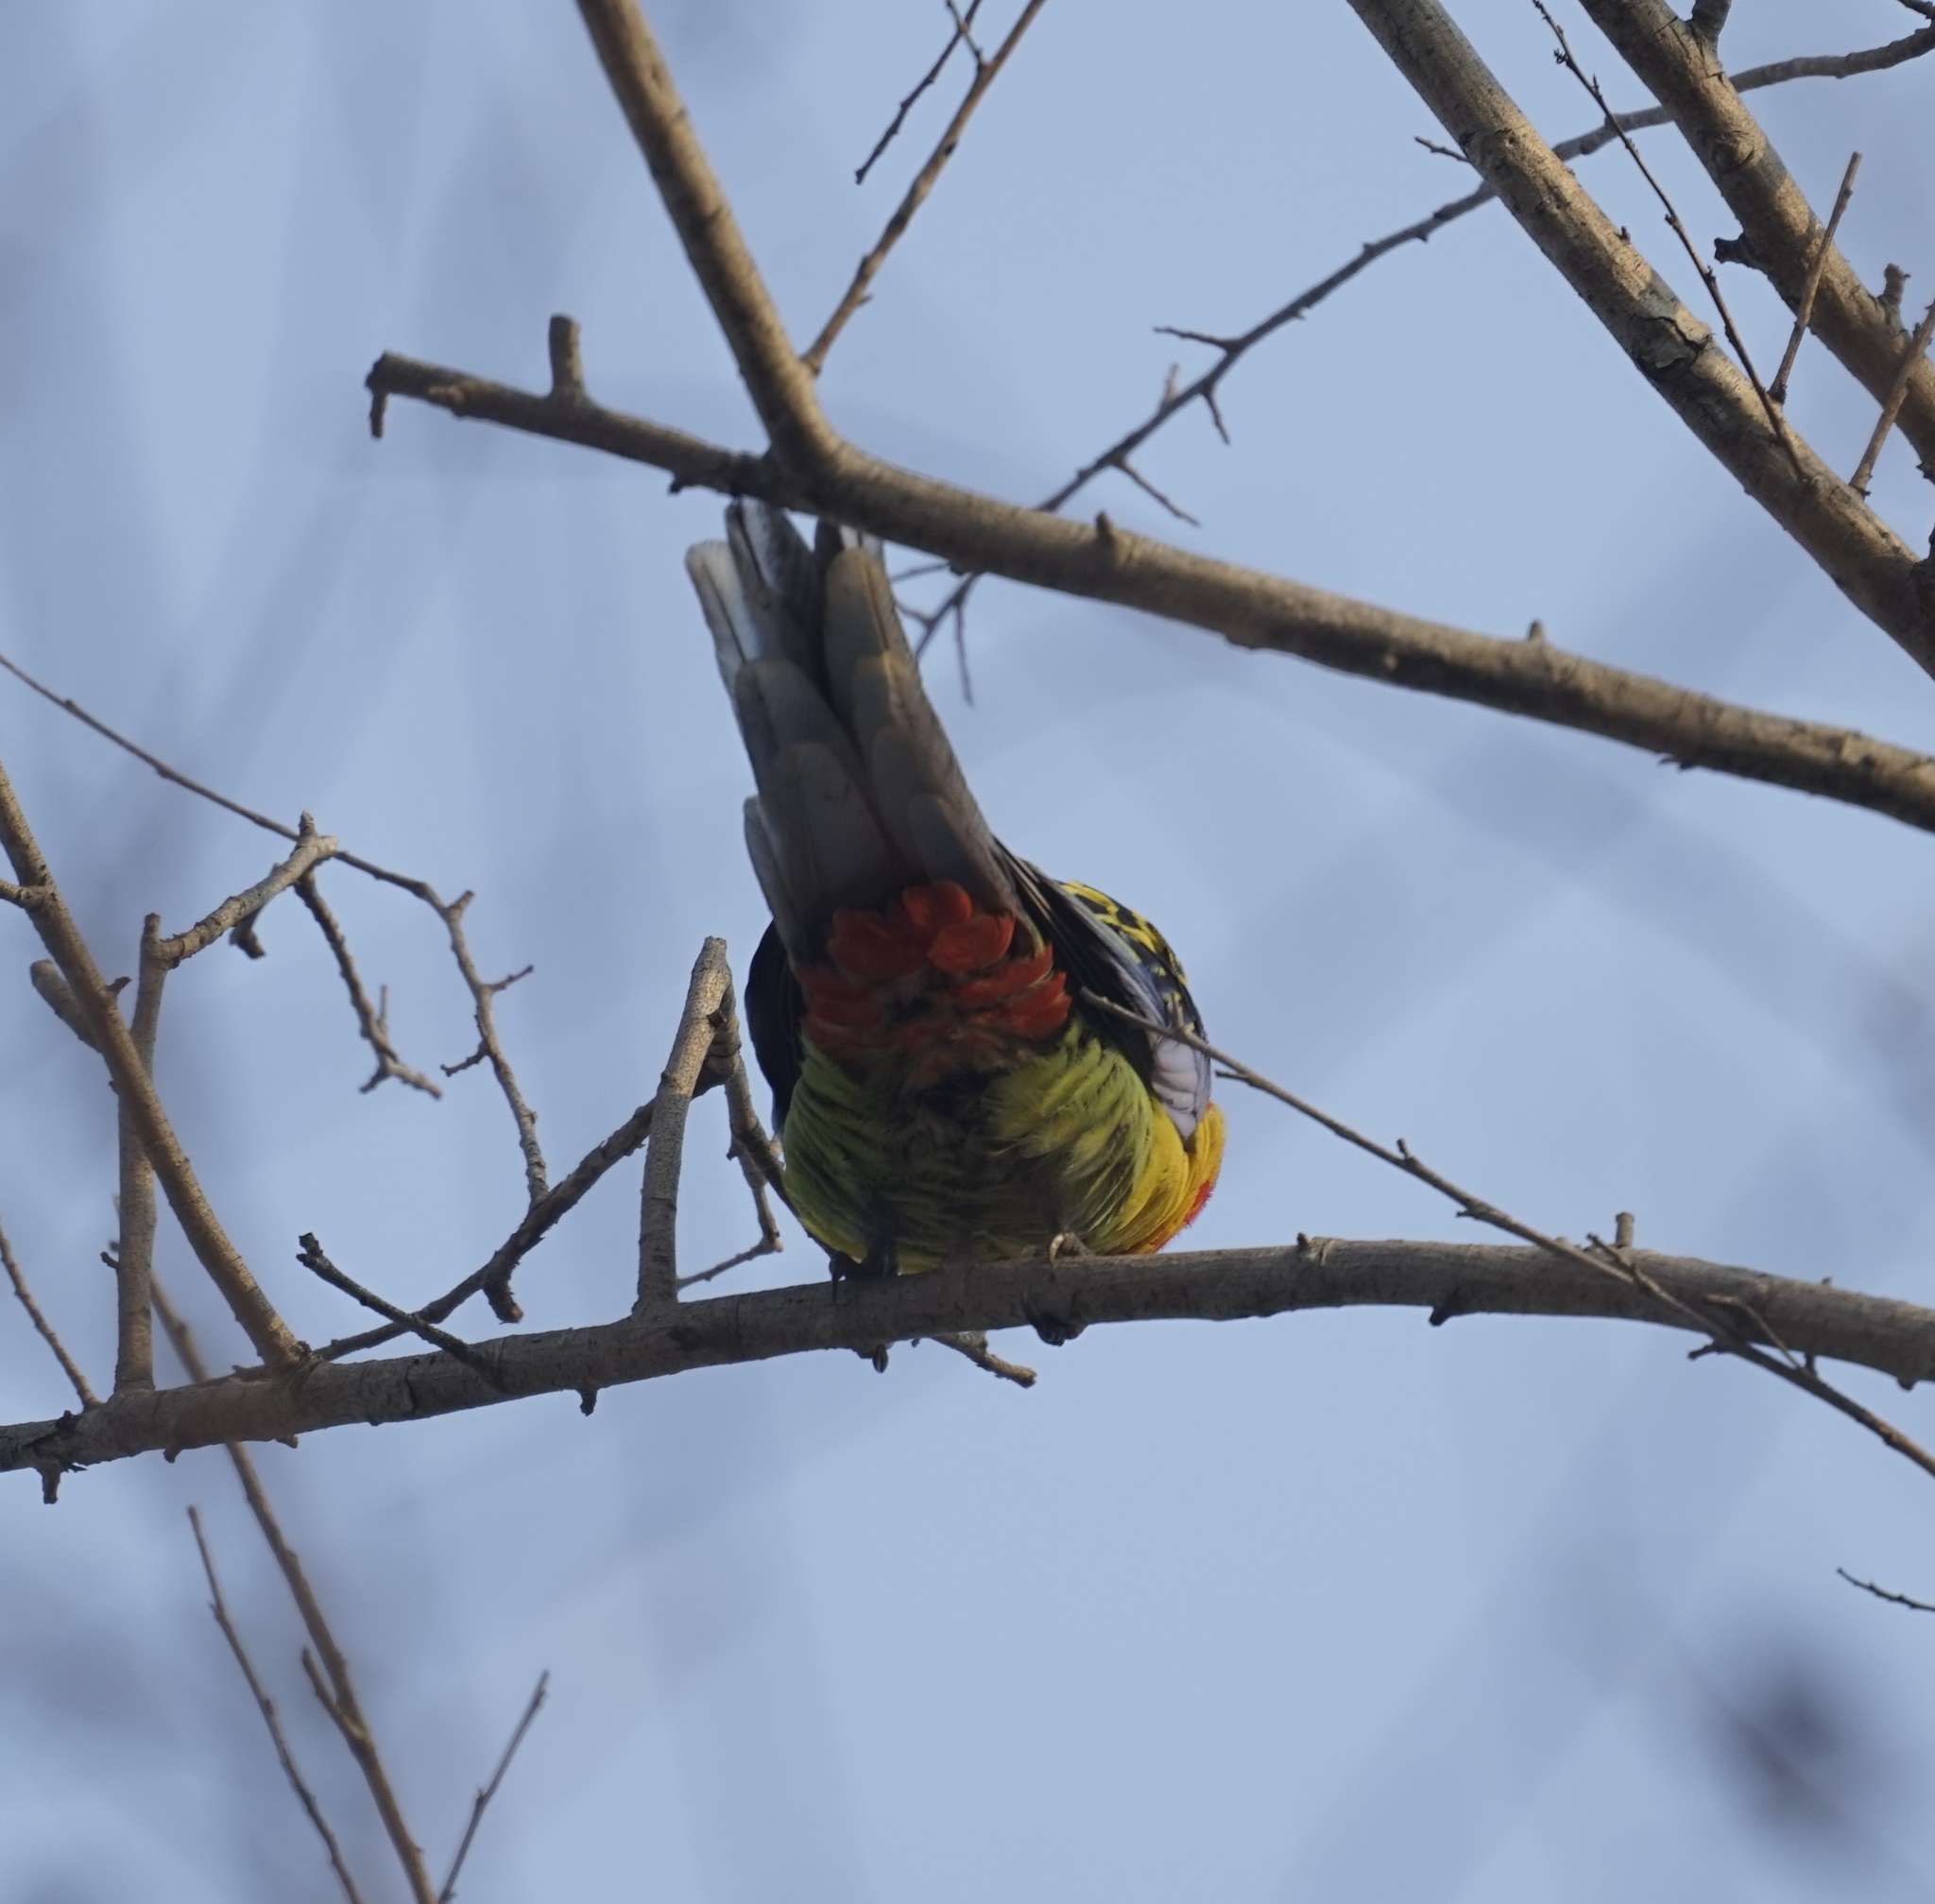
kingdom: Animalia
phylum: Chordata
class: Aves
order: Psittaciformes
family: Psittacidae
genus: Platycercus
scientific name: Platycercus eximius
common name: Eastern rosella
